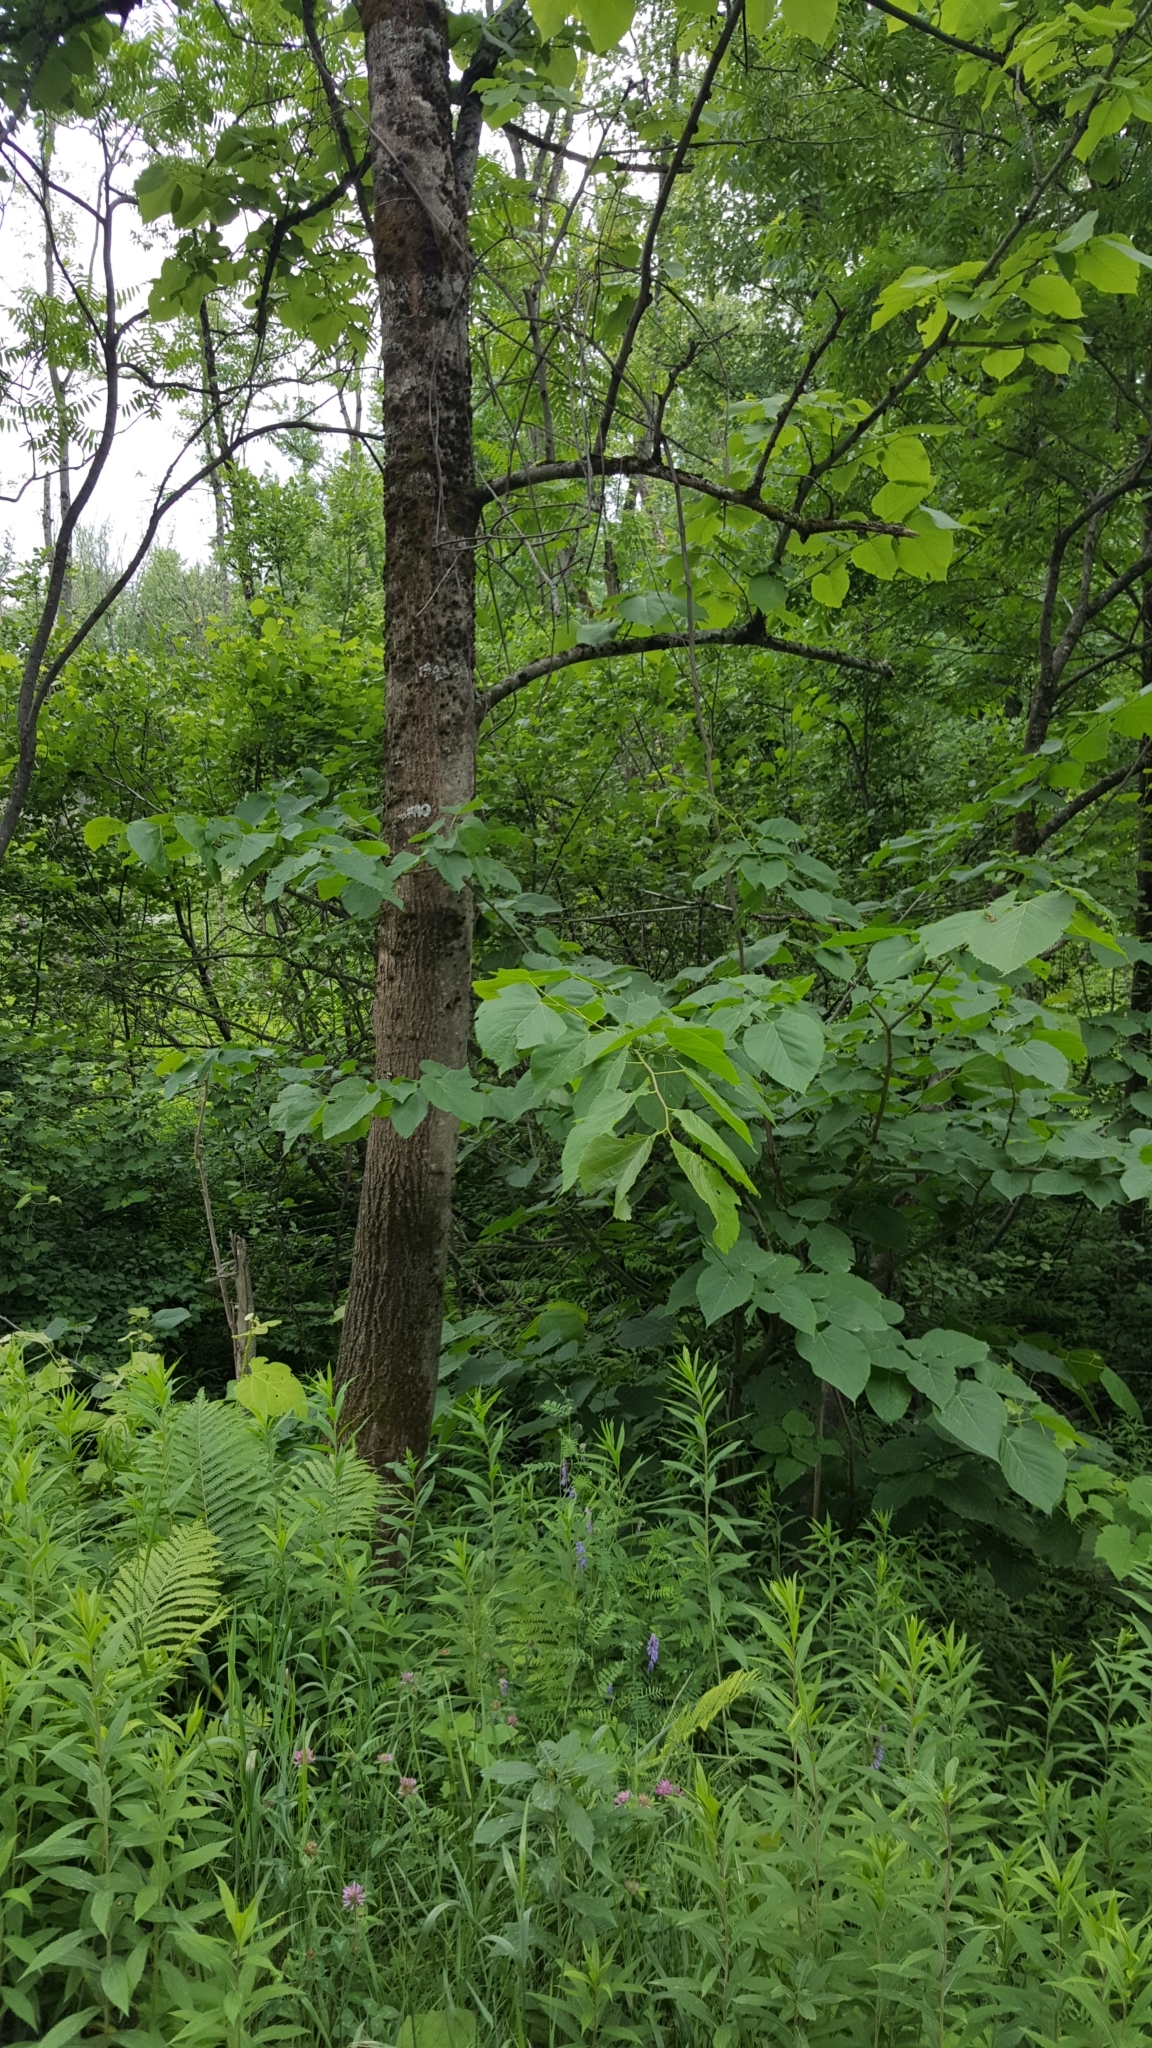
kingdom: Plantae
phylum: Tracheophyta
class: Magnoliopsida
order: Malvales
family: Malvaceae
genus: Tilia
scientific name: Tilia americana
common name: Basswood
